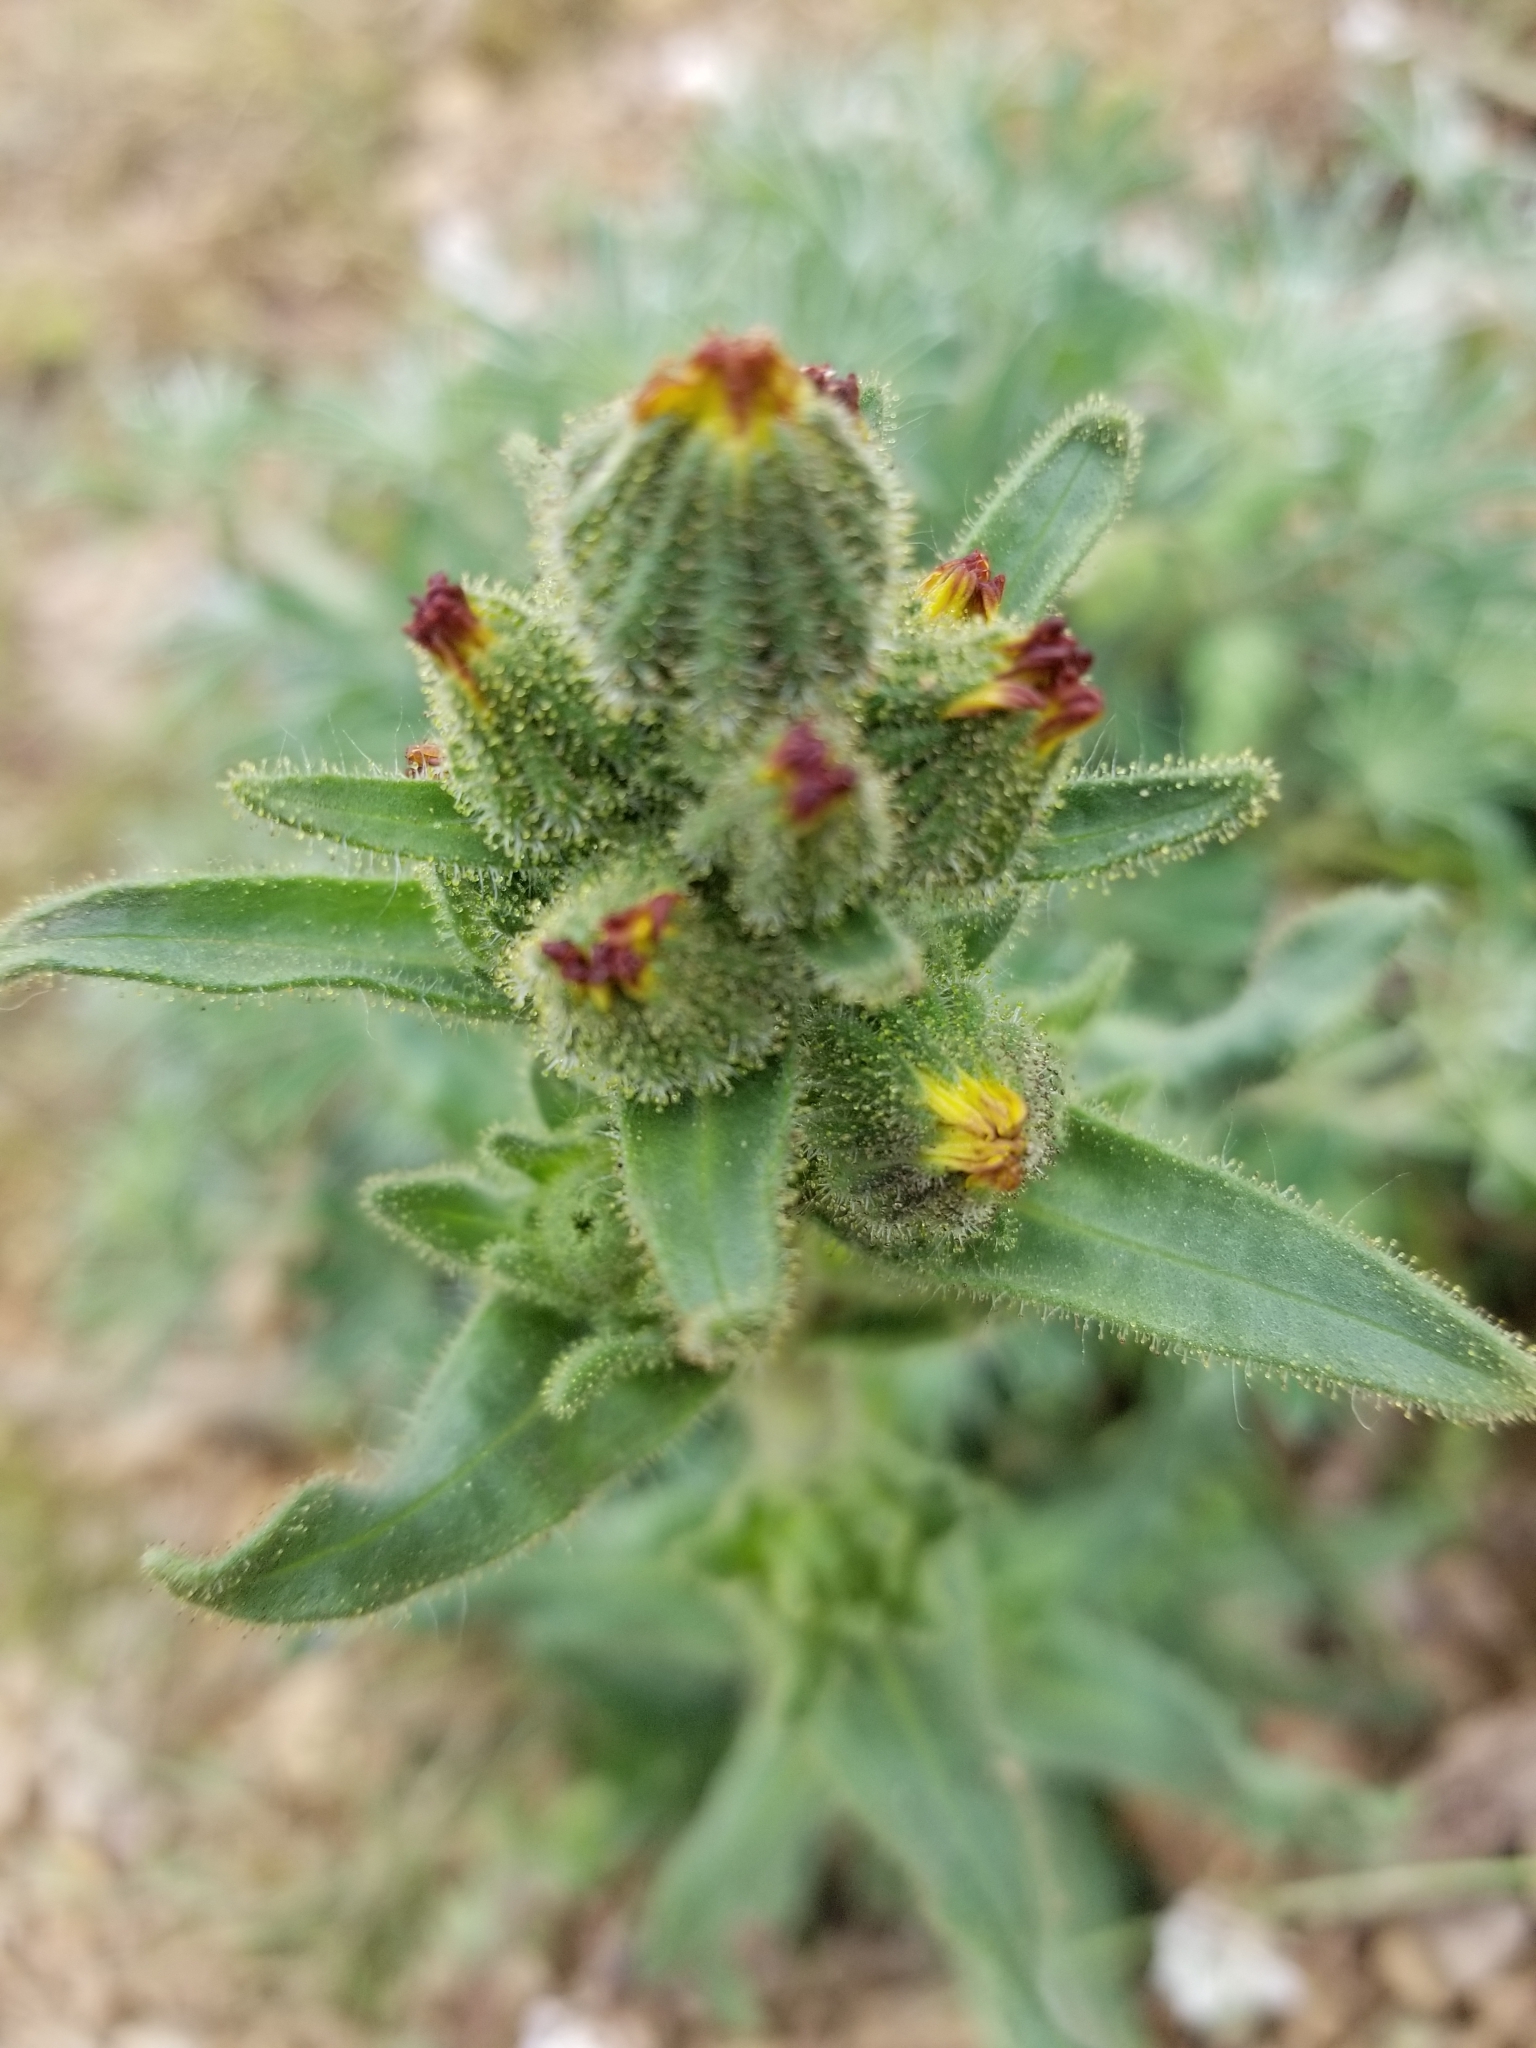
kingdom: Plantae
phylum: Tracheophyta
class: Magnoliopsida
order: Asterales
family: Asteraceae
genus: Madia
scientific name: Madia sativa
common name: Coast tarweed
